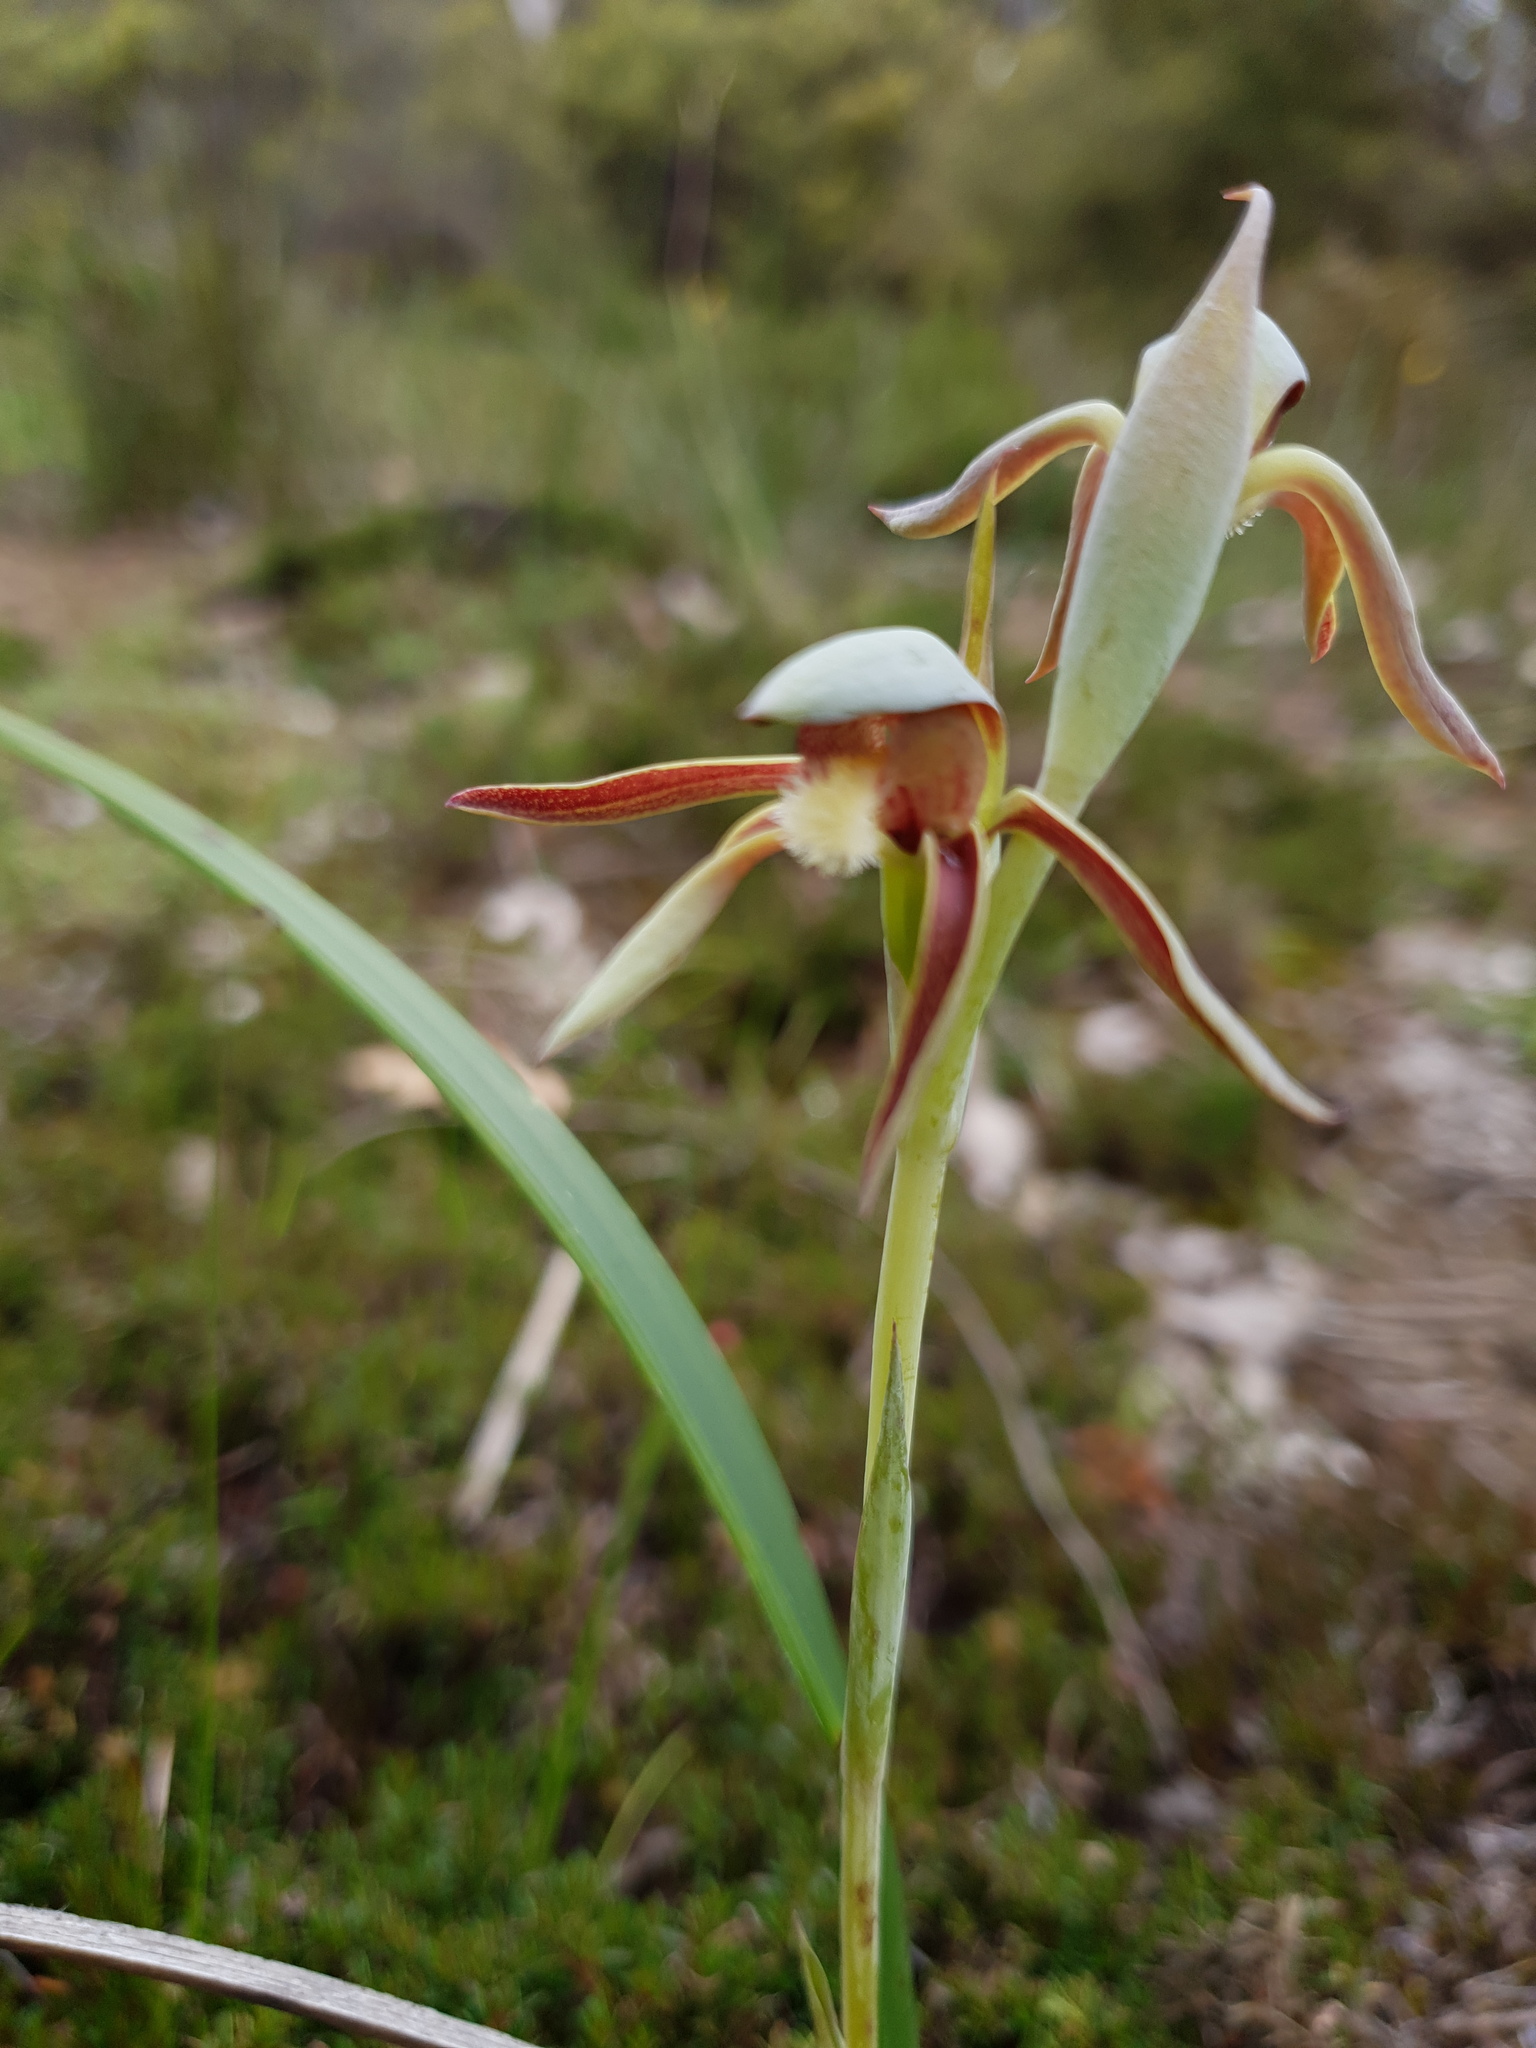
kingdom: Plantae
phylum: Tracheophyta
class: Liliopsida
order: Asparagales
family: Orchidaceae
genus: Lyperanthus
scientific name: Lyperanthus serratus
